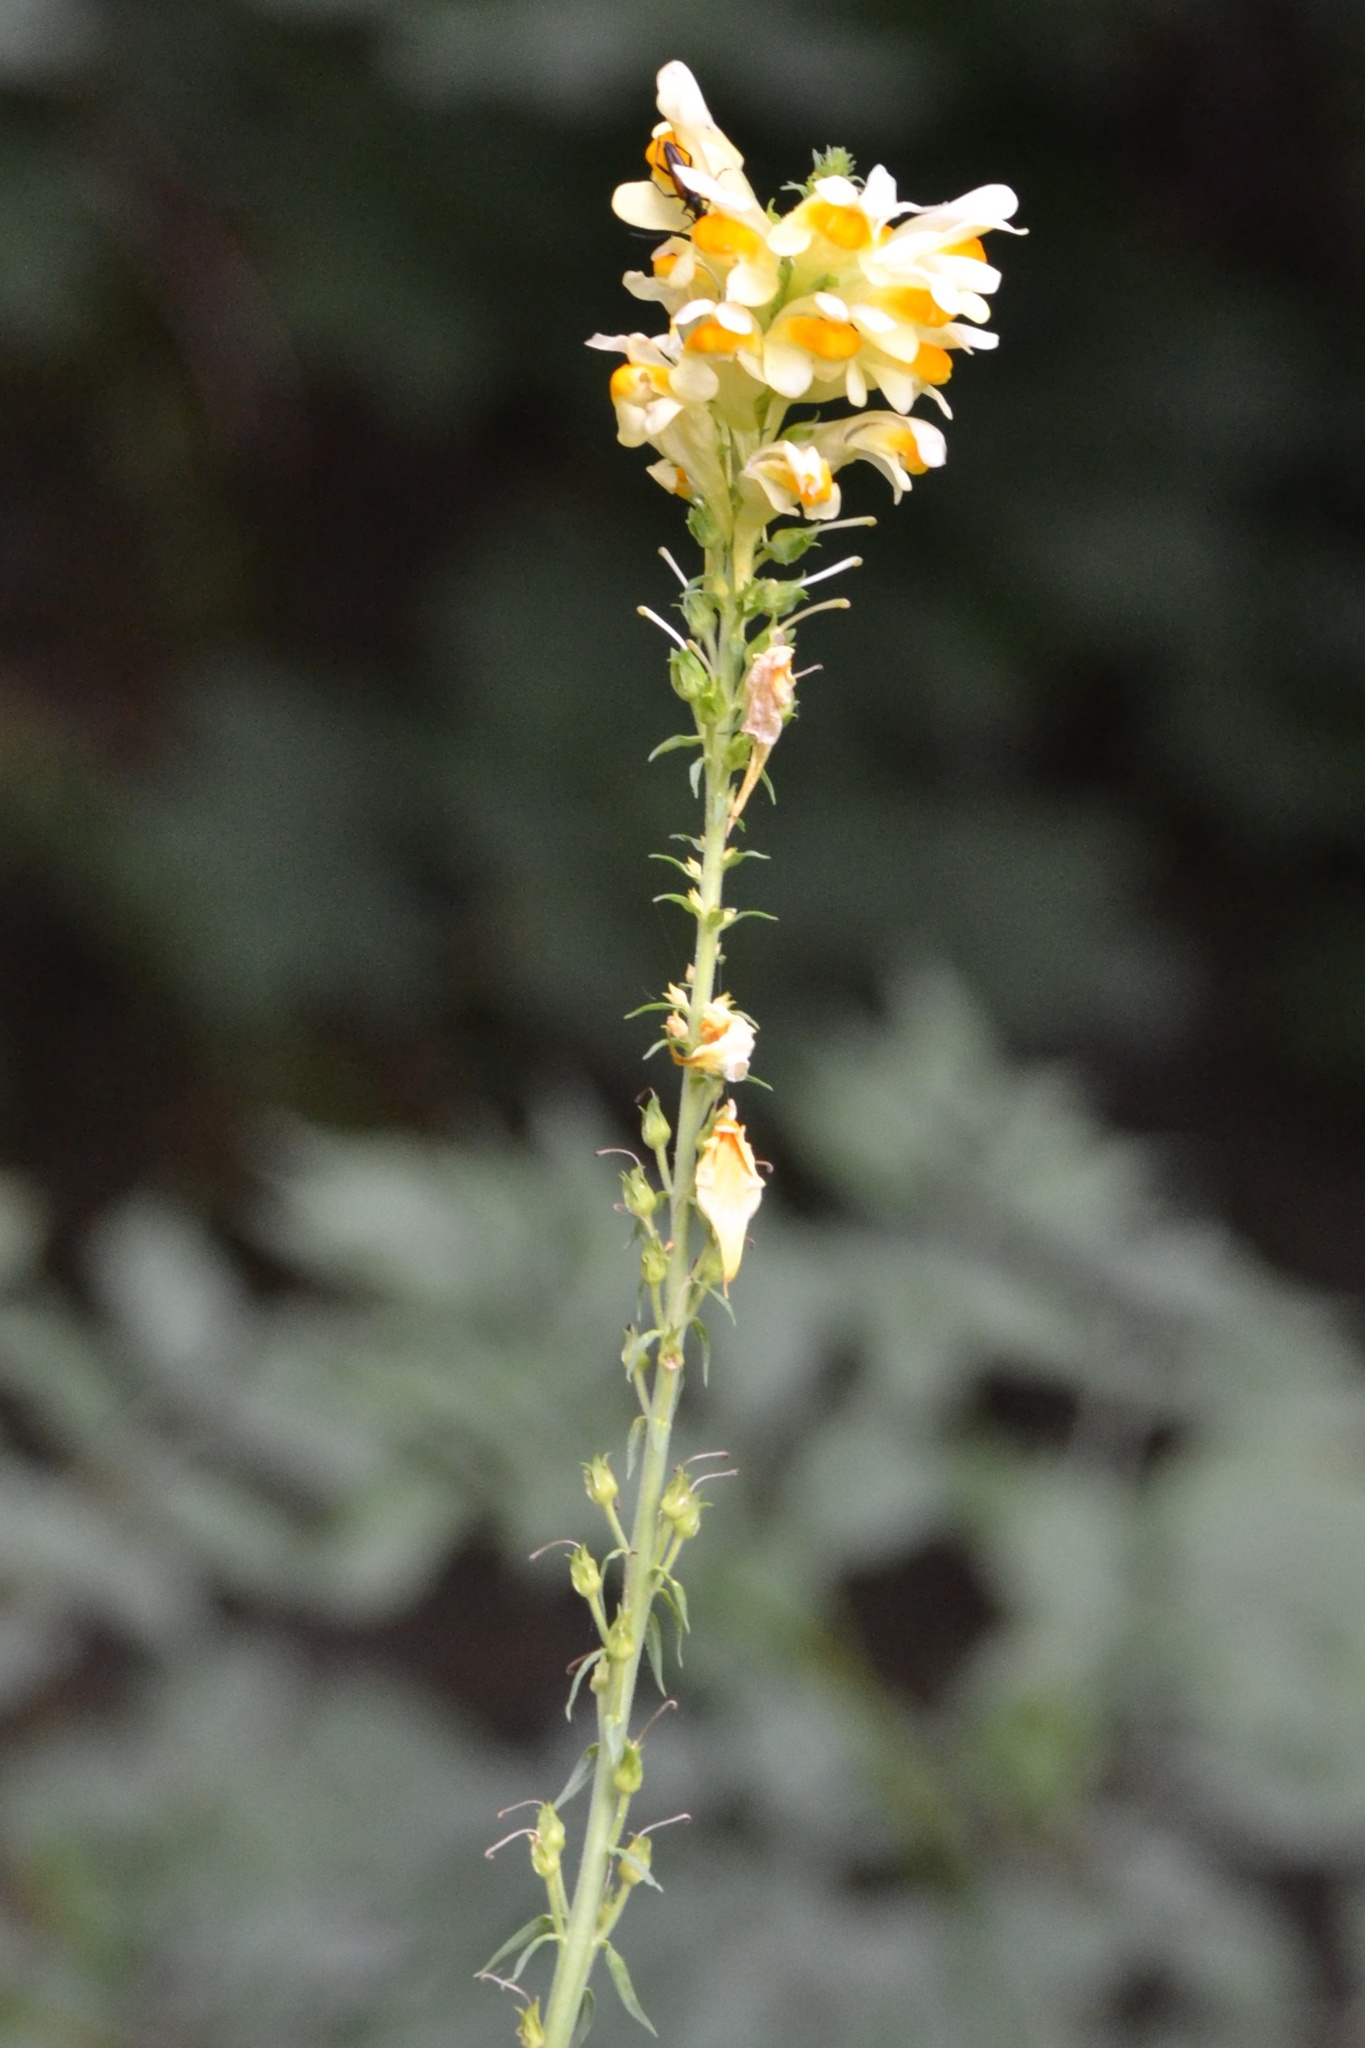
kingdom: Plantae
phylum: Tracheophyta
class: Magnoliopsida
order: Lamiales
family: Plantaginaceae
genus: Linaria
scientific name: Linaria vulgaris
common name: Butter and eggs
